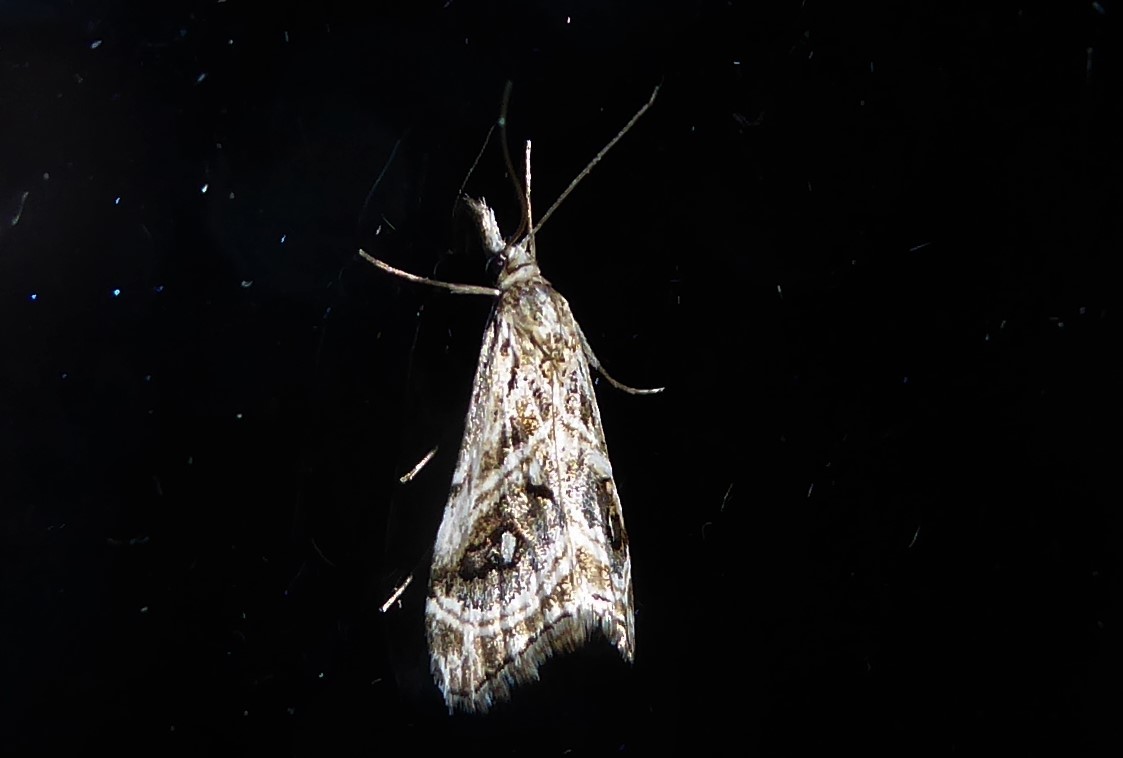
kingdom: Animalia
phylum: Arthropoda
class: Insecta
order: Lepidoptera
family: Crambidae
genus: Gadira
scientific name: Gadira acerella
